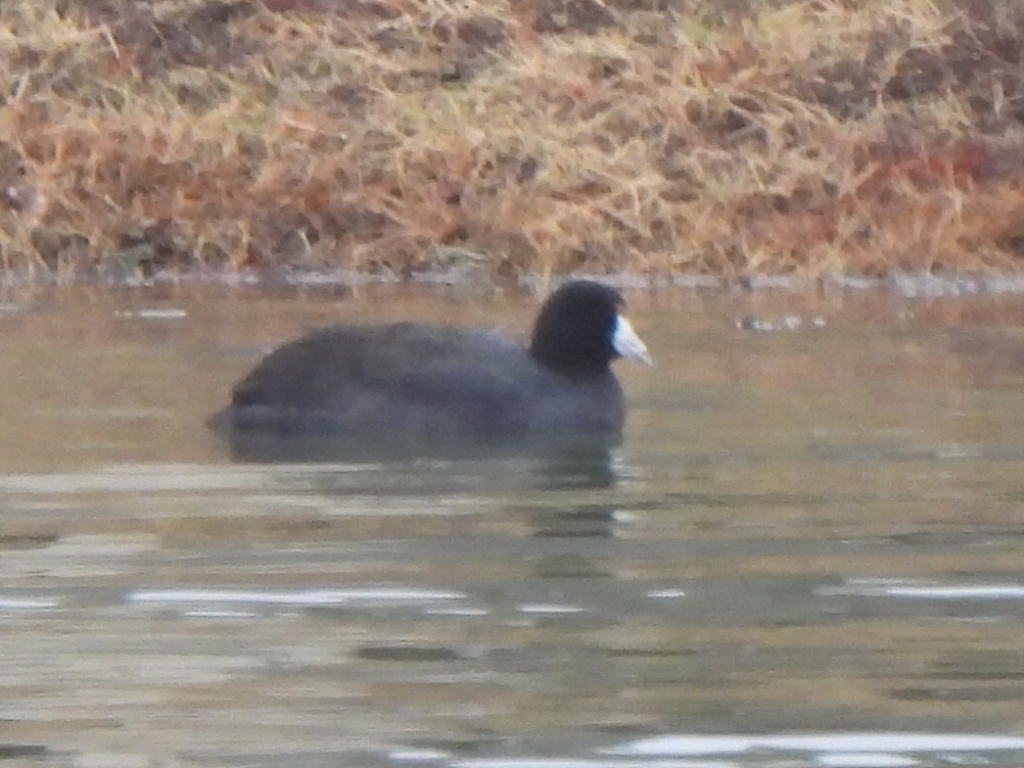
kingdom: Animalia
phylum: Chordata
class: Aves
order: Gruiformes
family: Rallidae
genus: Fulica
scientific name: Fulica americana
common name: American coot
